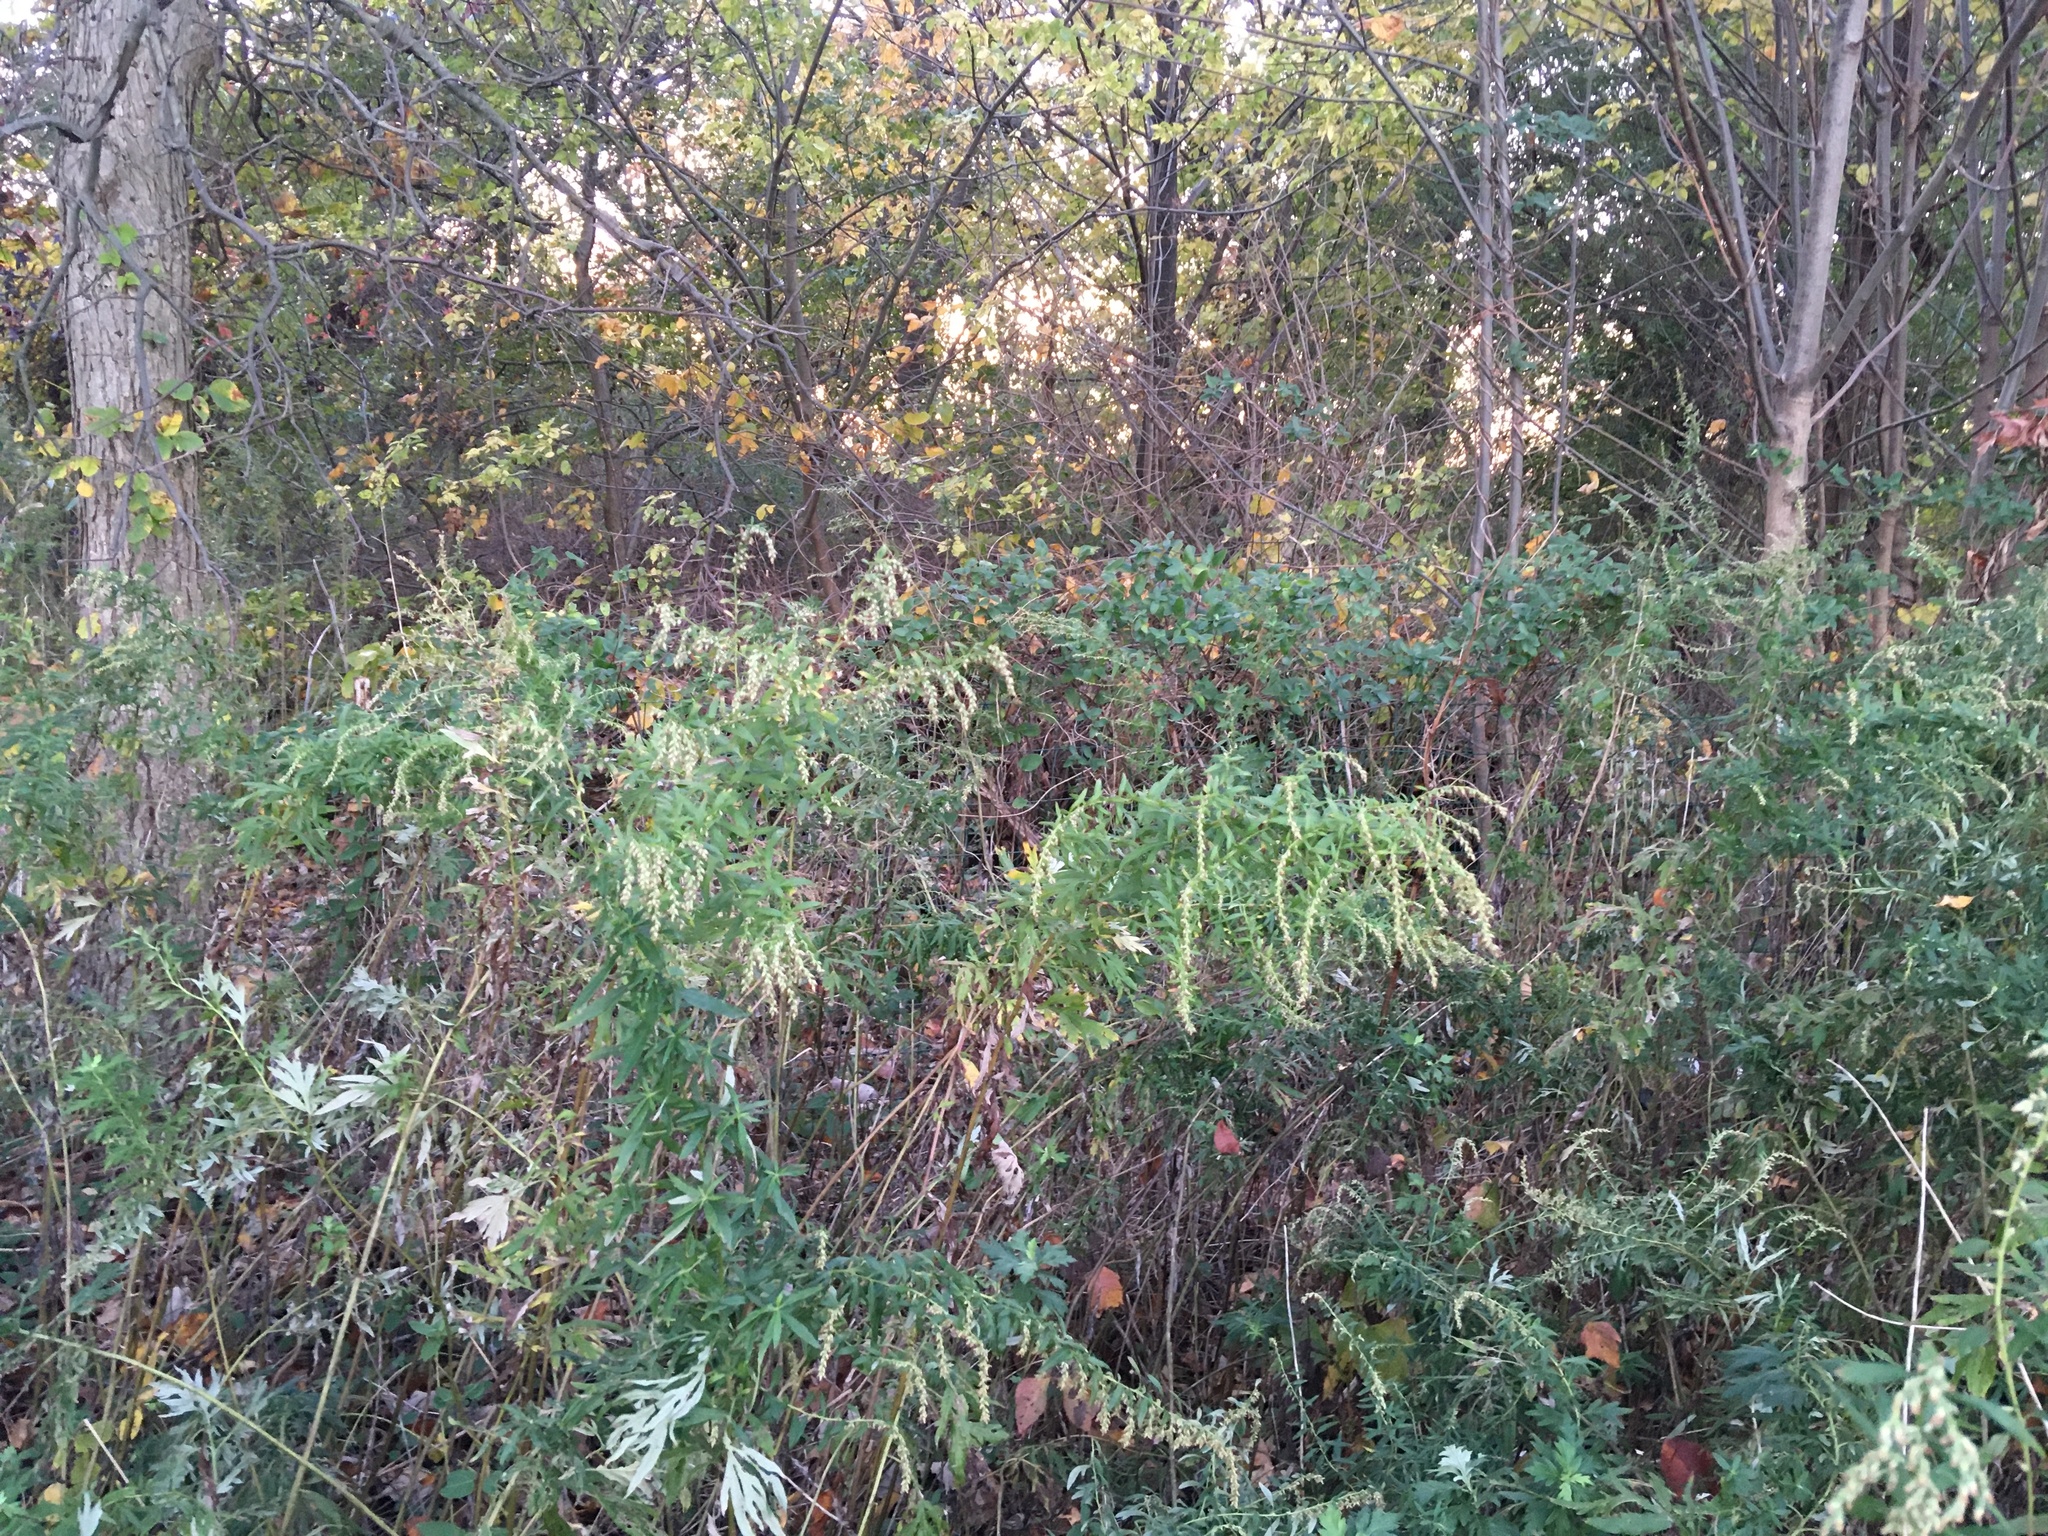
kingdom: Plantae
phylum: Tracheophyta
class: Magnoliopsida
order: Asterales
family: Asteraceae
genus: Artemisia
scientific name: Artemisia vulgaris
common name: Mugwort
